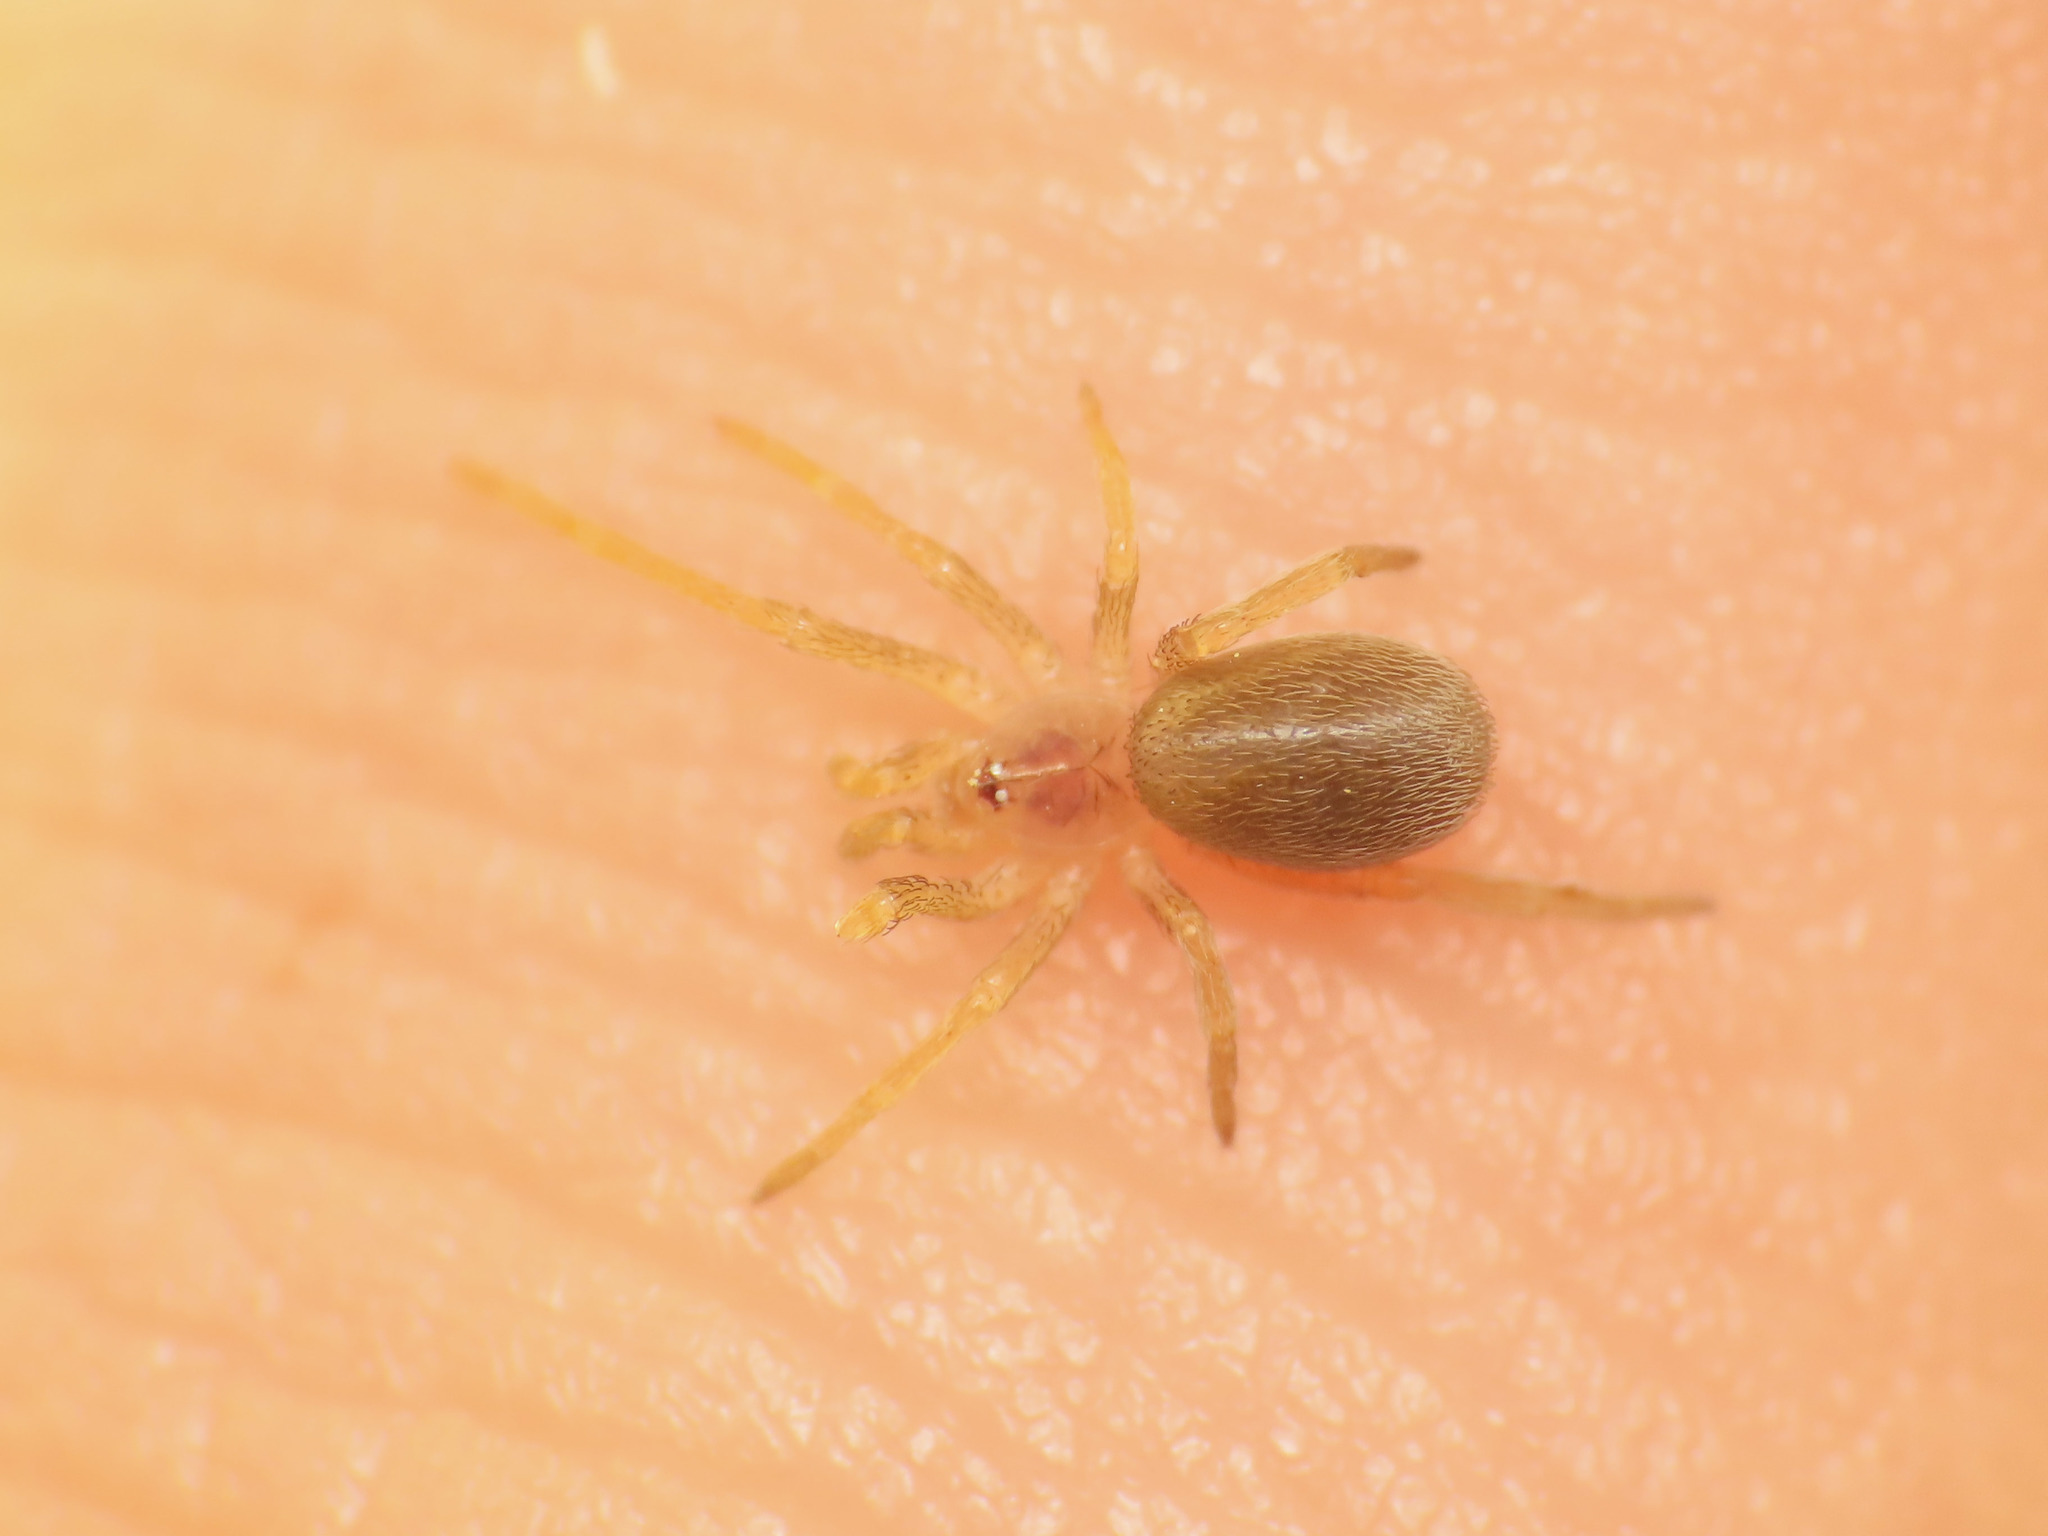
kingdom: Animalia
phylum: Arthropoda
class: Arachnida
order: Araneae
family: Filistatidae
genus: Filistata
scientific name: Filistata insidiatrix
